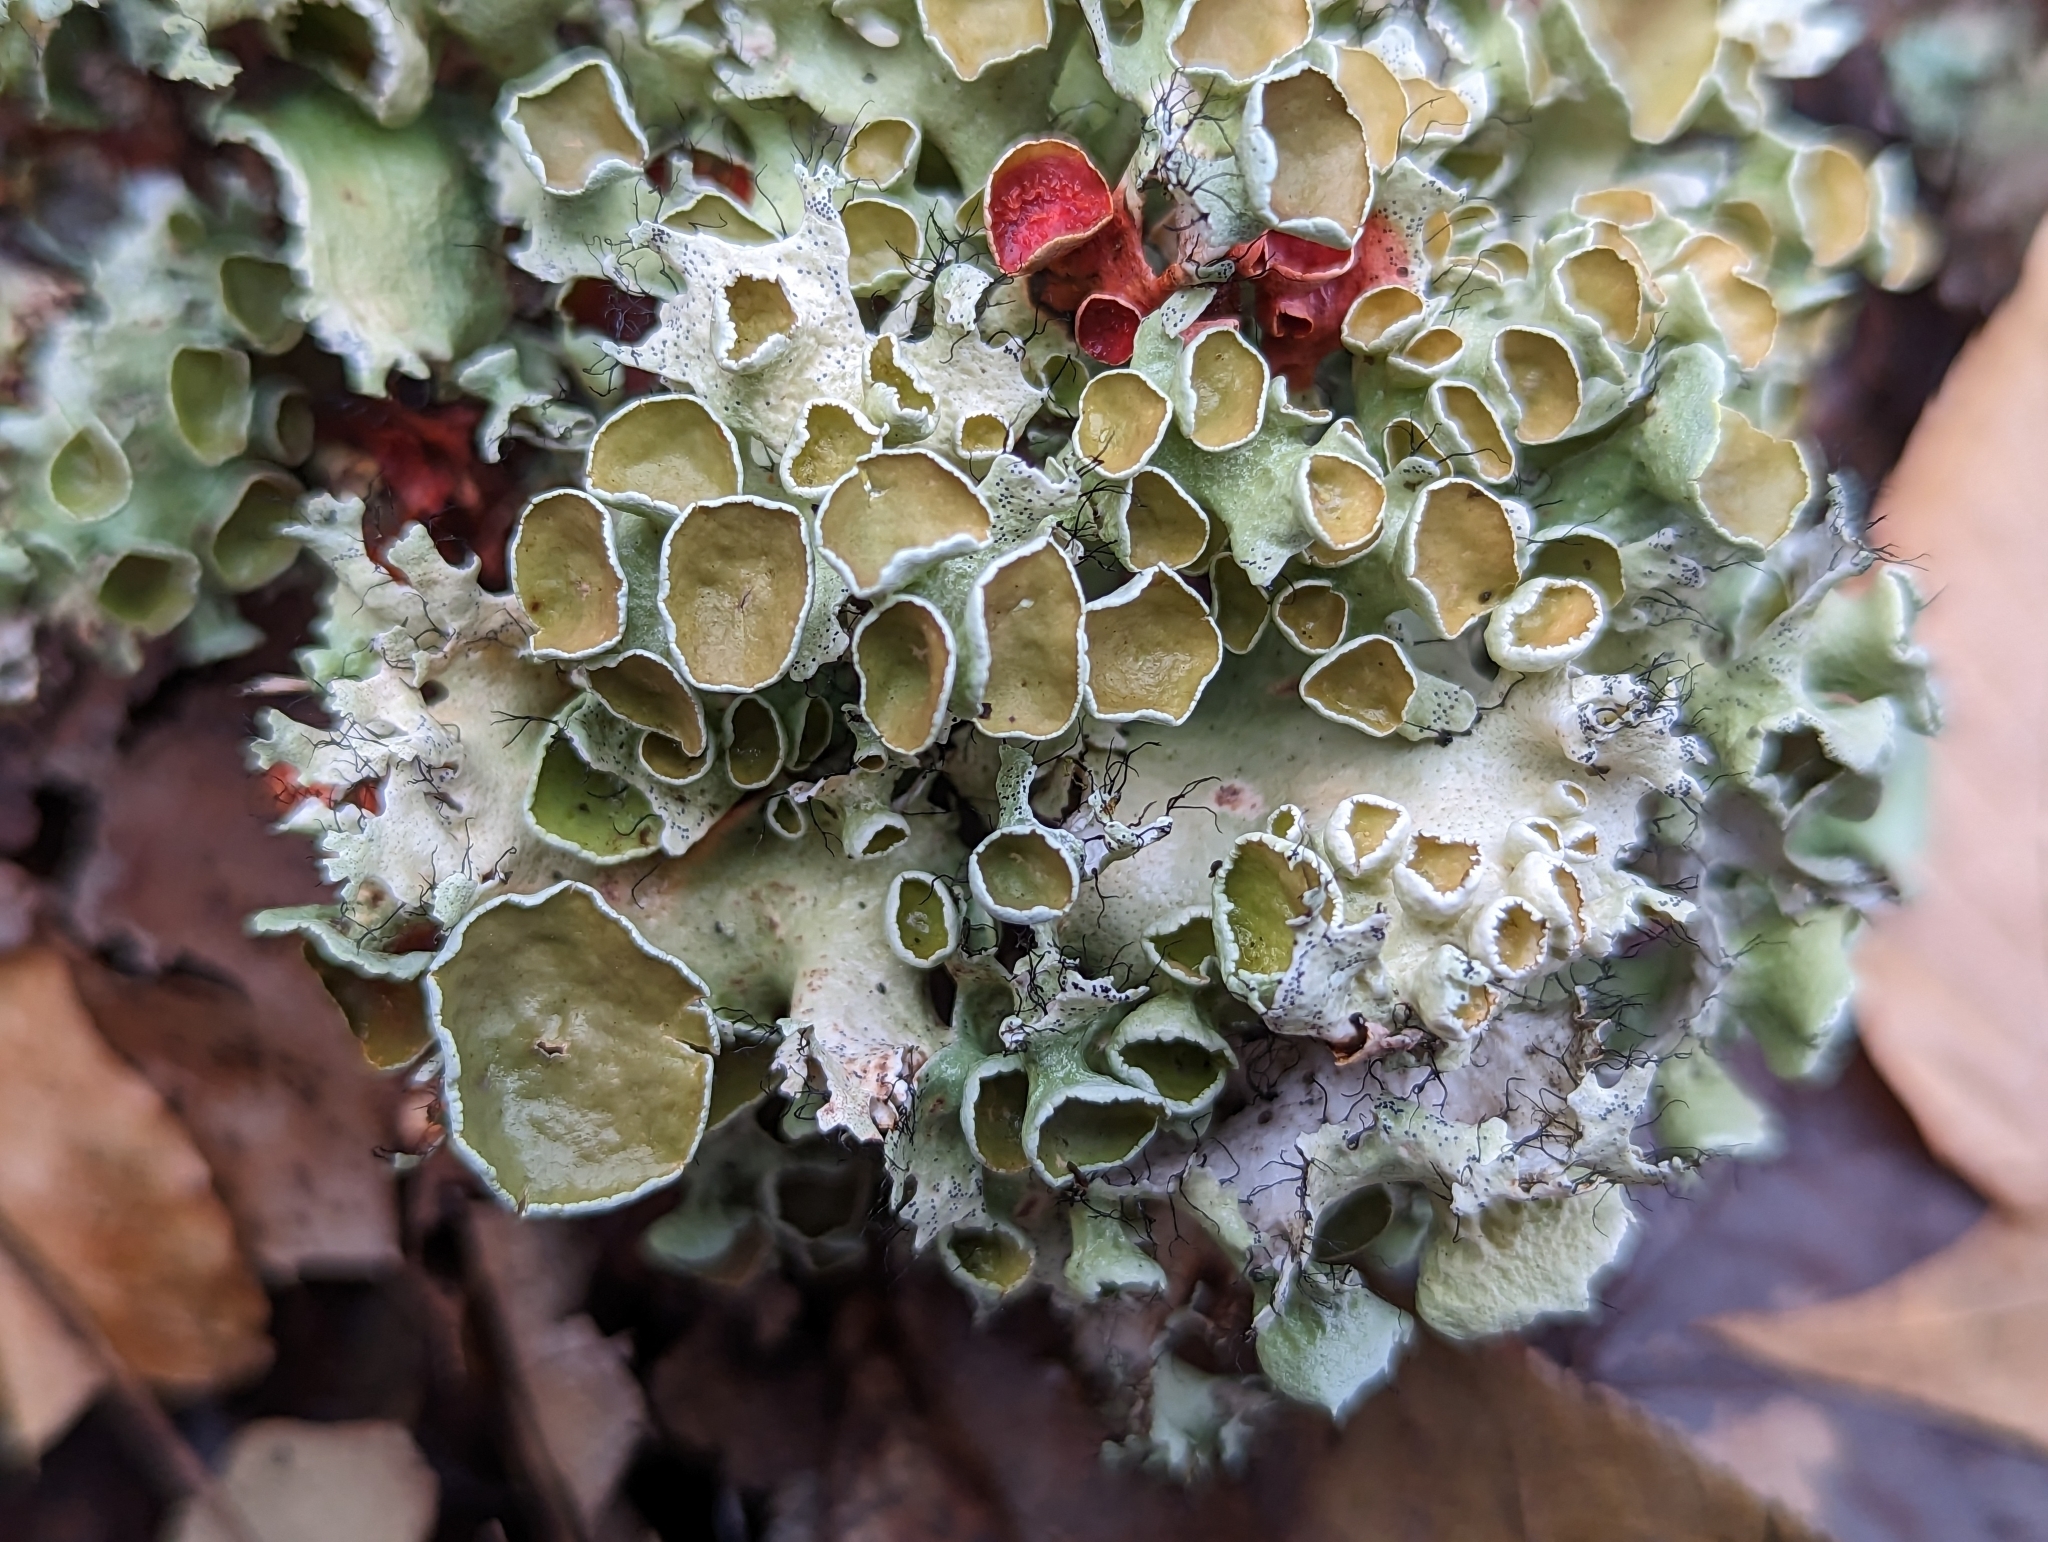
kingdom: Fungi
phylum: Ascomycota
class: Lecanoromycetes
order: Lecanorales
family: Parmeliaceae
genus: Parmotrema
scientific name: Parmotrema perforatum
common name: Perforated ruffle lichen
